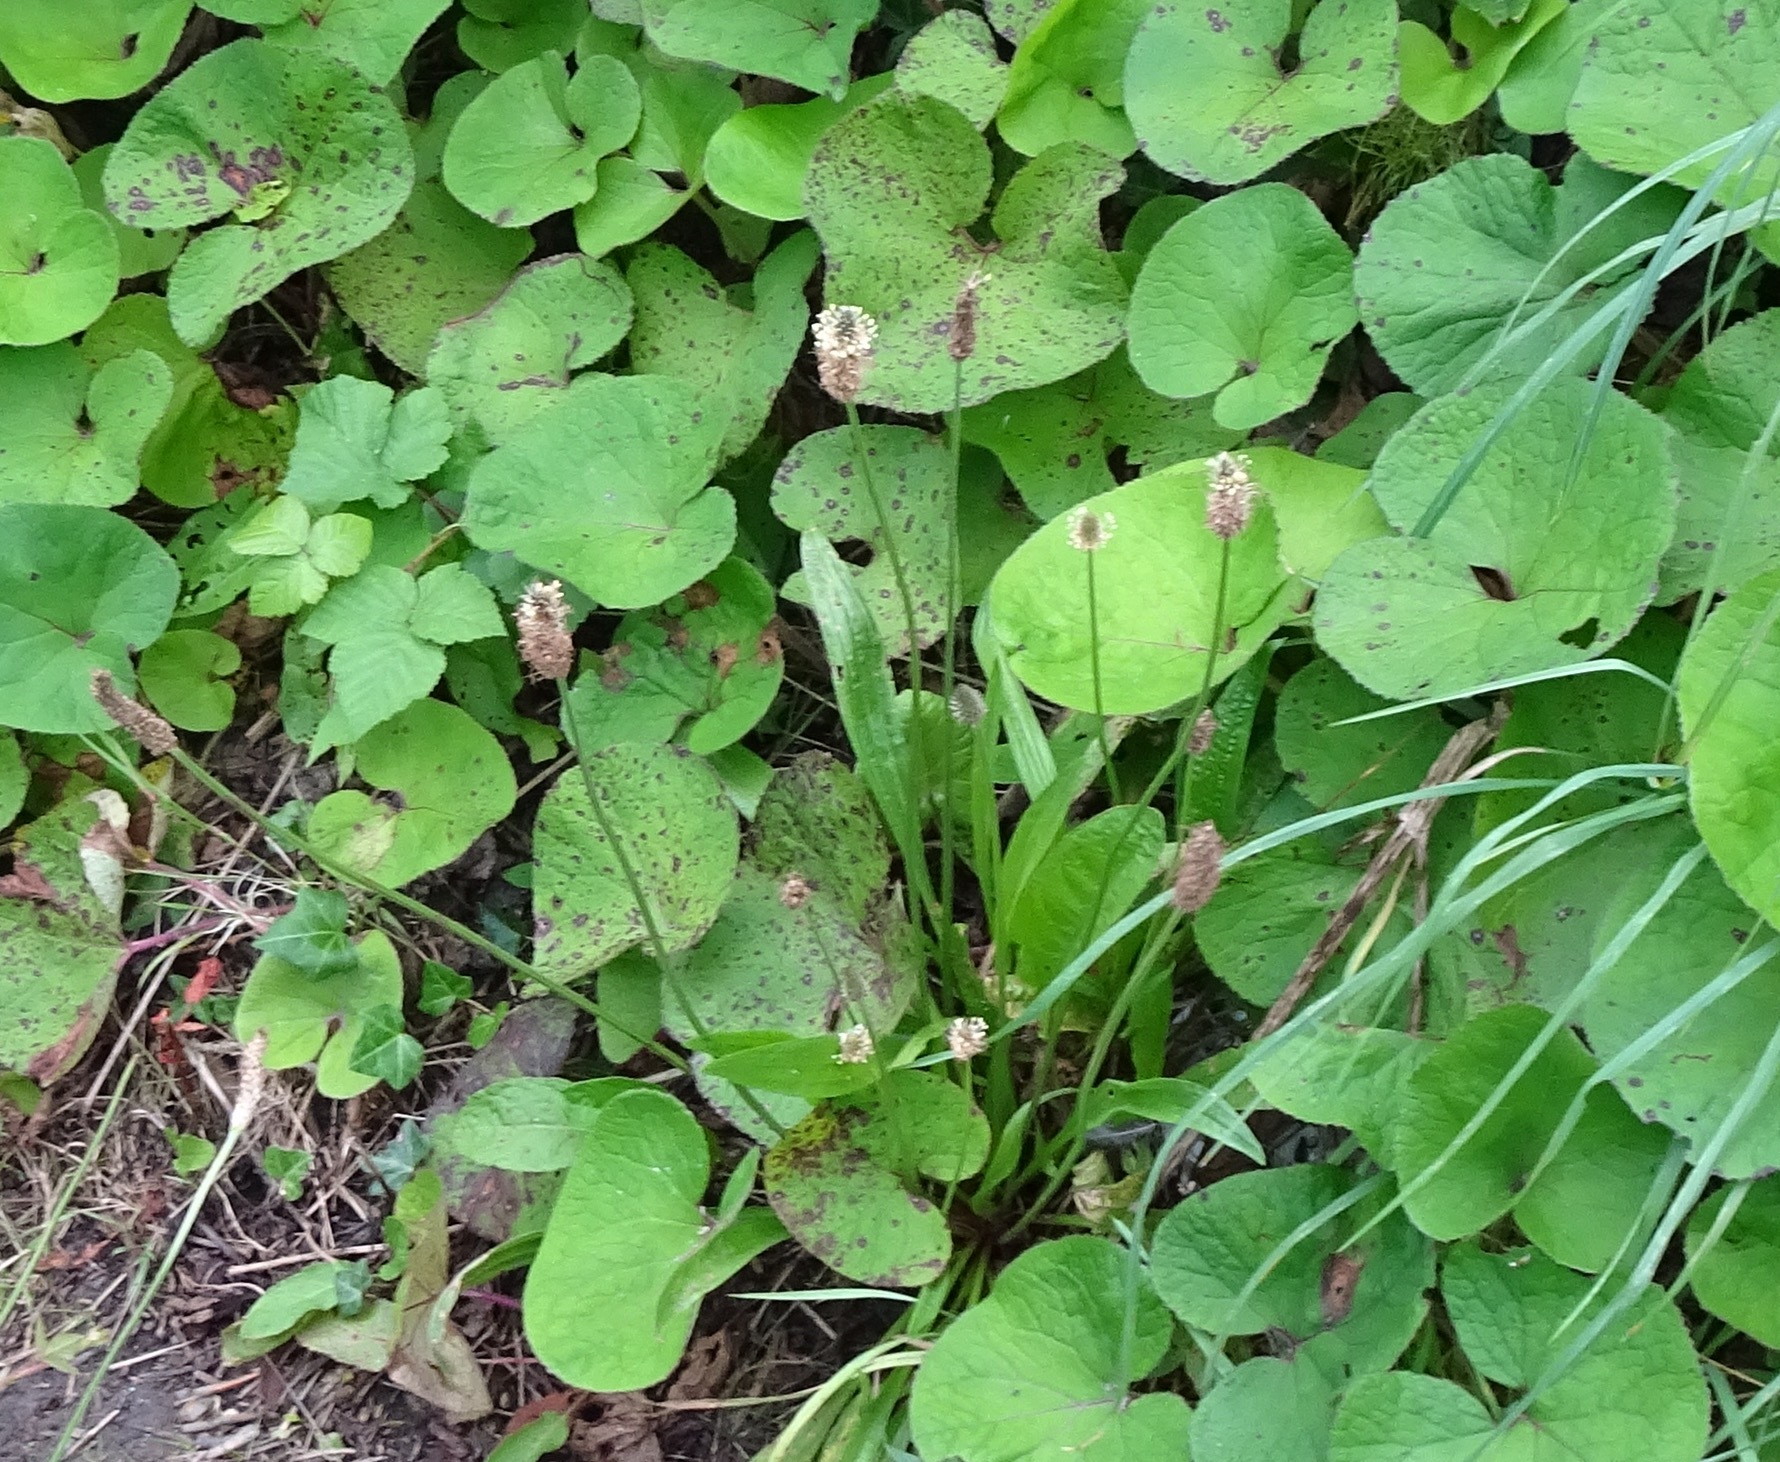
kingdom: Plantae
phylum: Tracheophyta
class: Magnoliopsida
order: Lamiales
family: Plantaginaceae
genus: Plantago
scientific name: Plantago lanceolata
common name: Ribwort plantain
